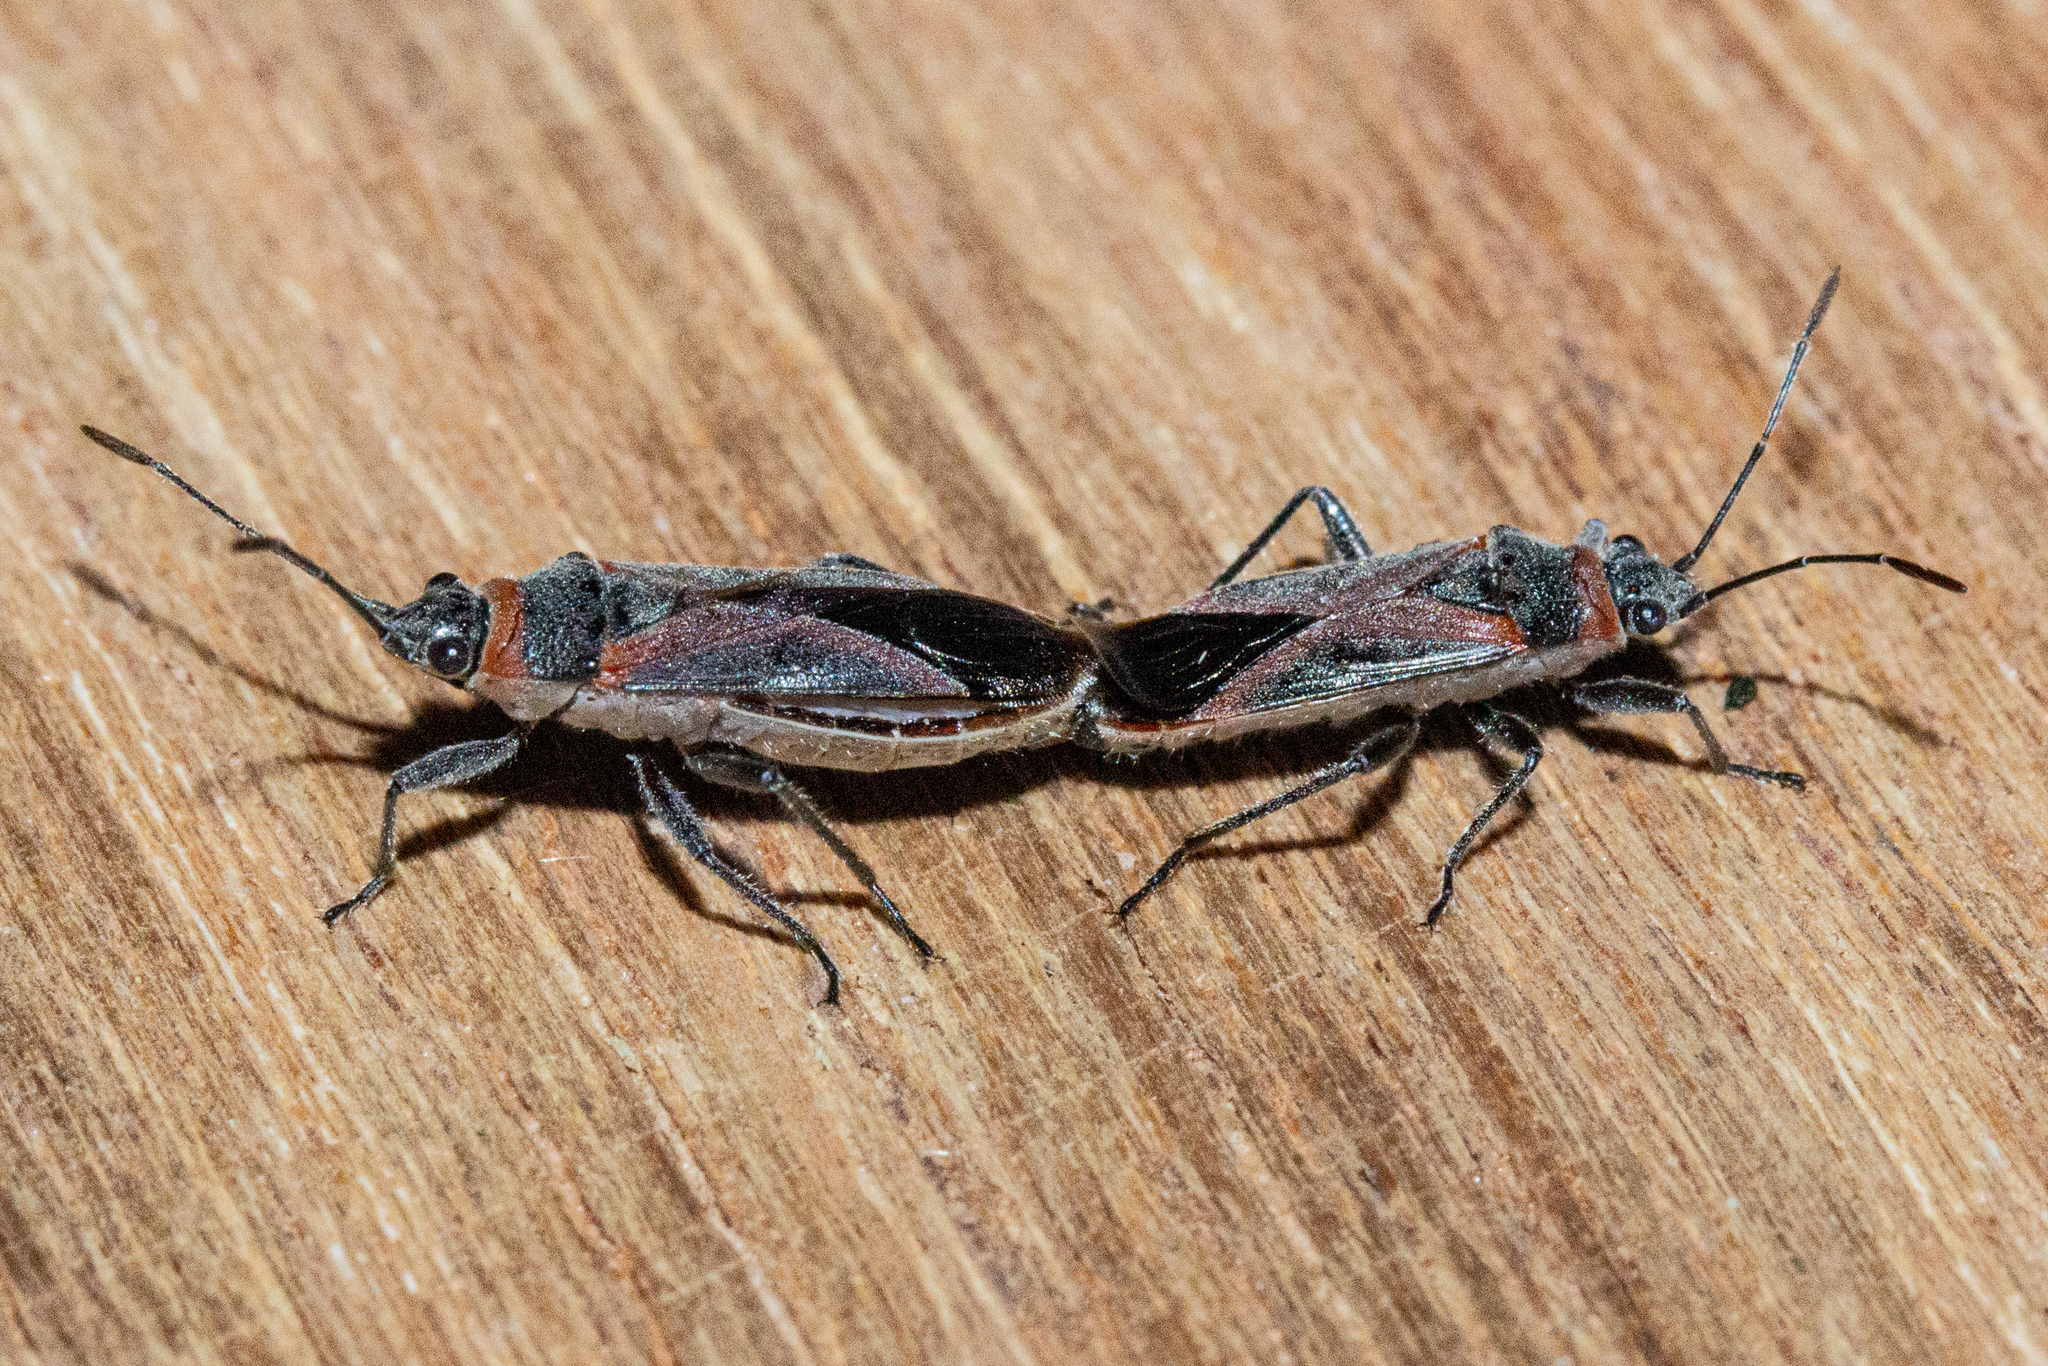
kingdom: Animalia
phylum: Arthropoda
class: Insecta
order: Hemiptera
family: Lygaeidae
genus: Arocatus
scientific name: Arocatus rusticus
